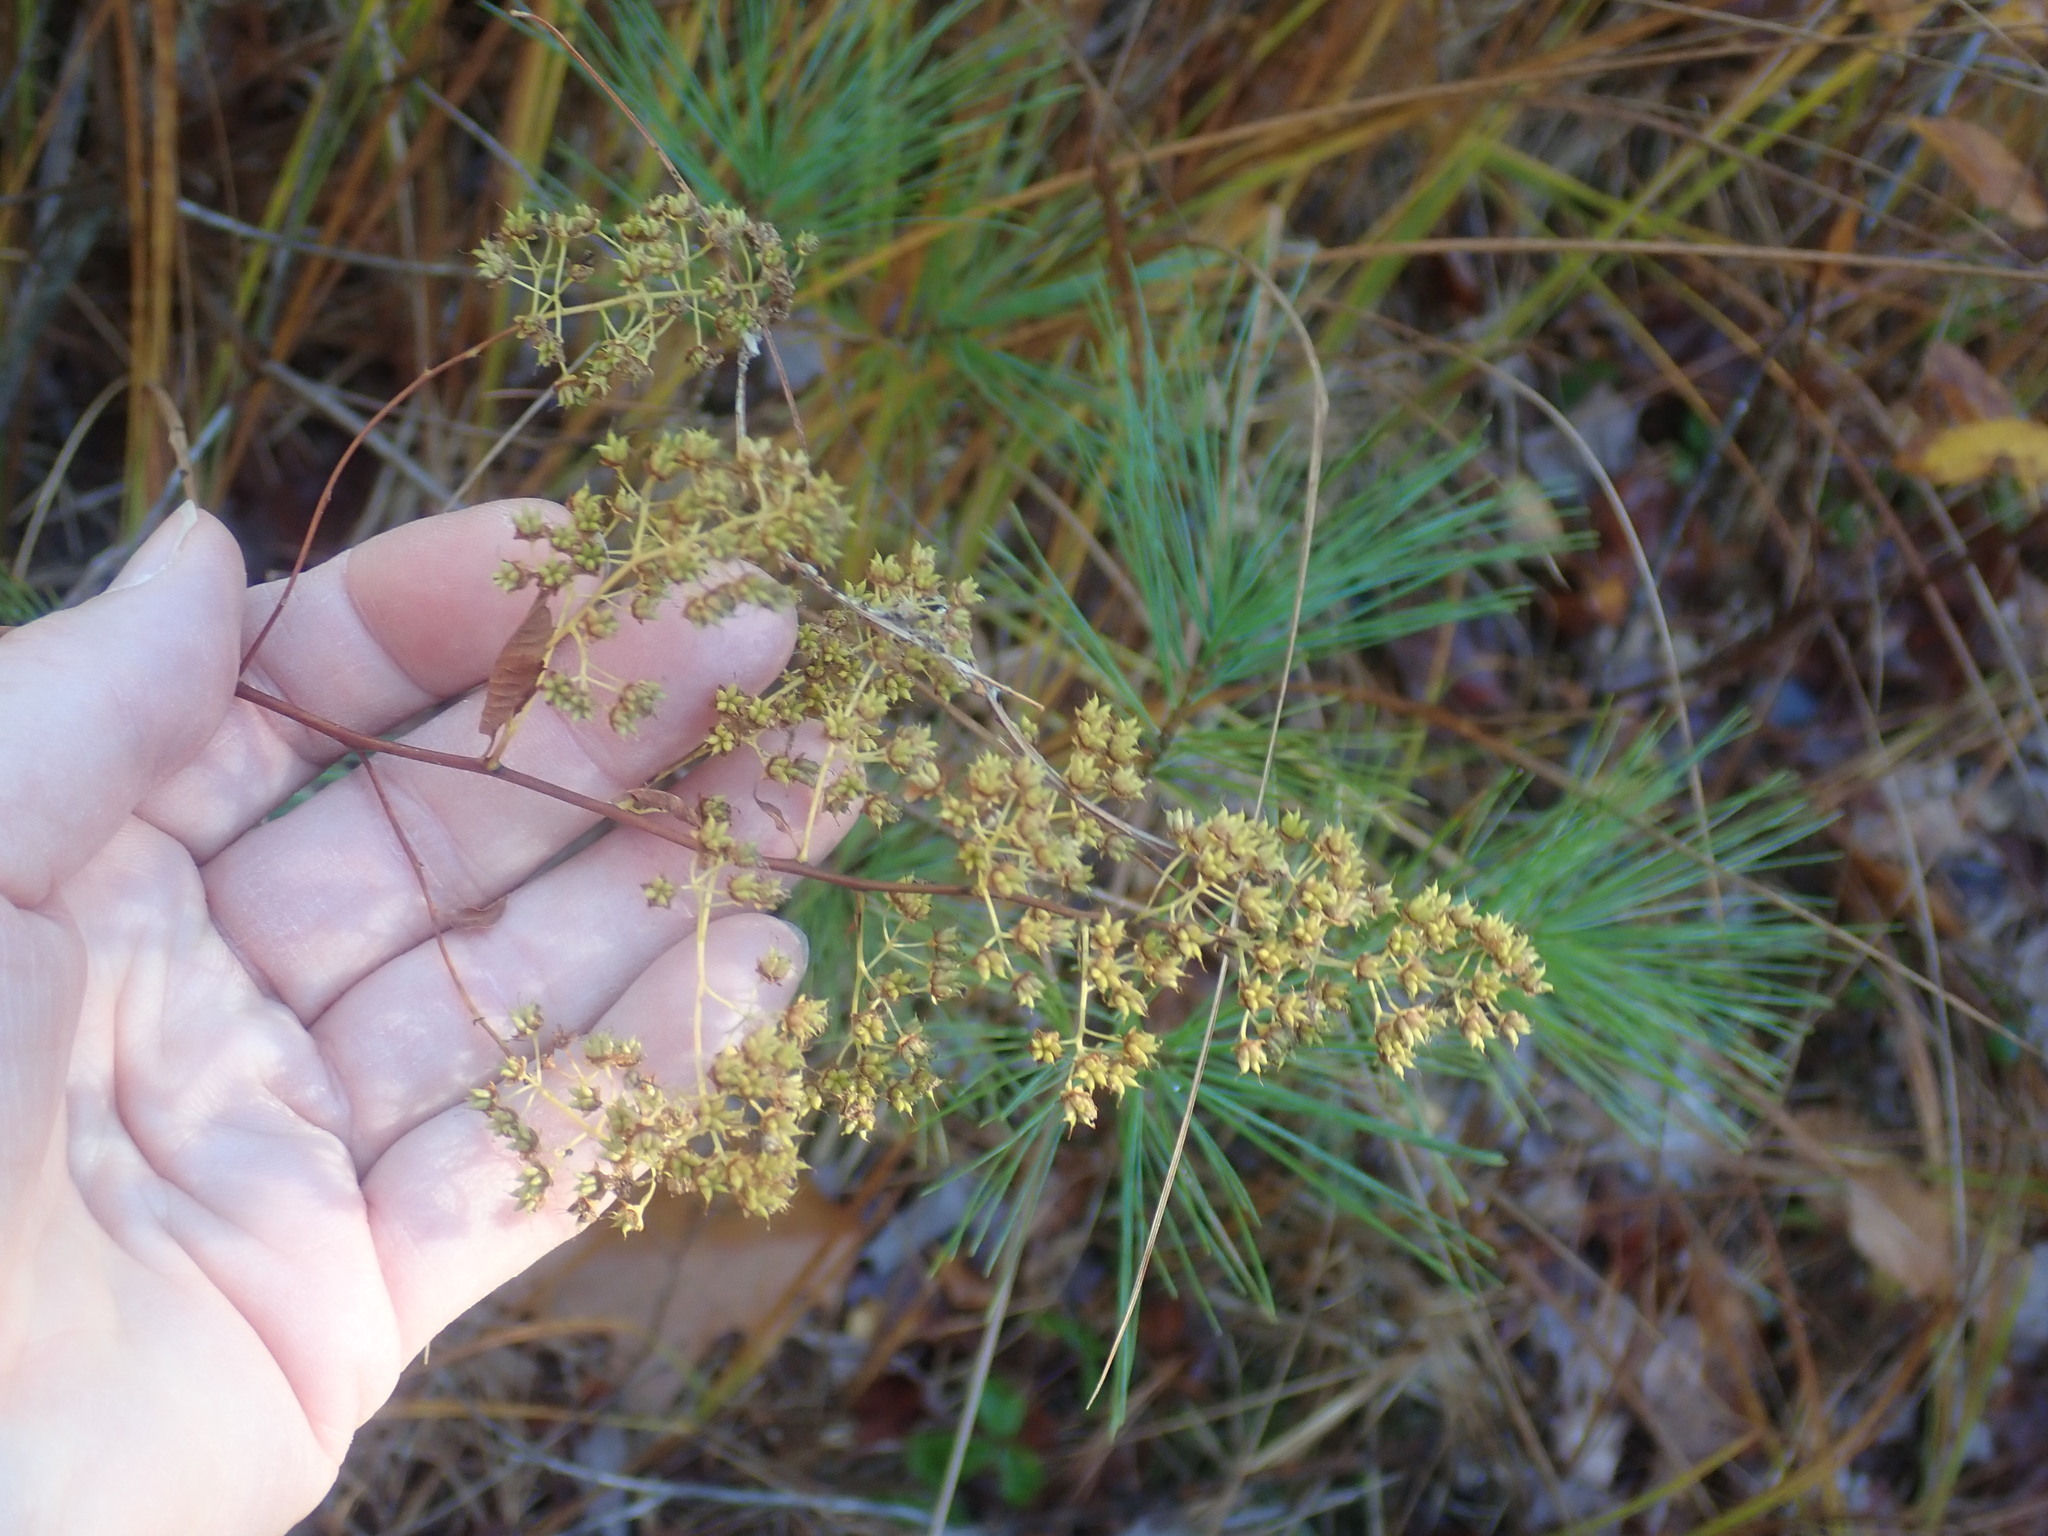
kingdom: Plantae
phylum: Tracheophyta
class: Magnoliopsida
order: Rosales
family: Rosaceae
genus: Spiraea
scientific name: Spiraea alba
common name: Pale bridewort
